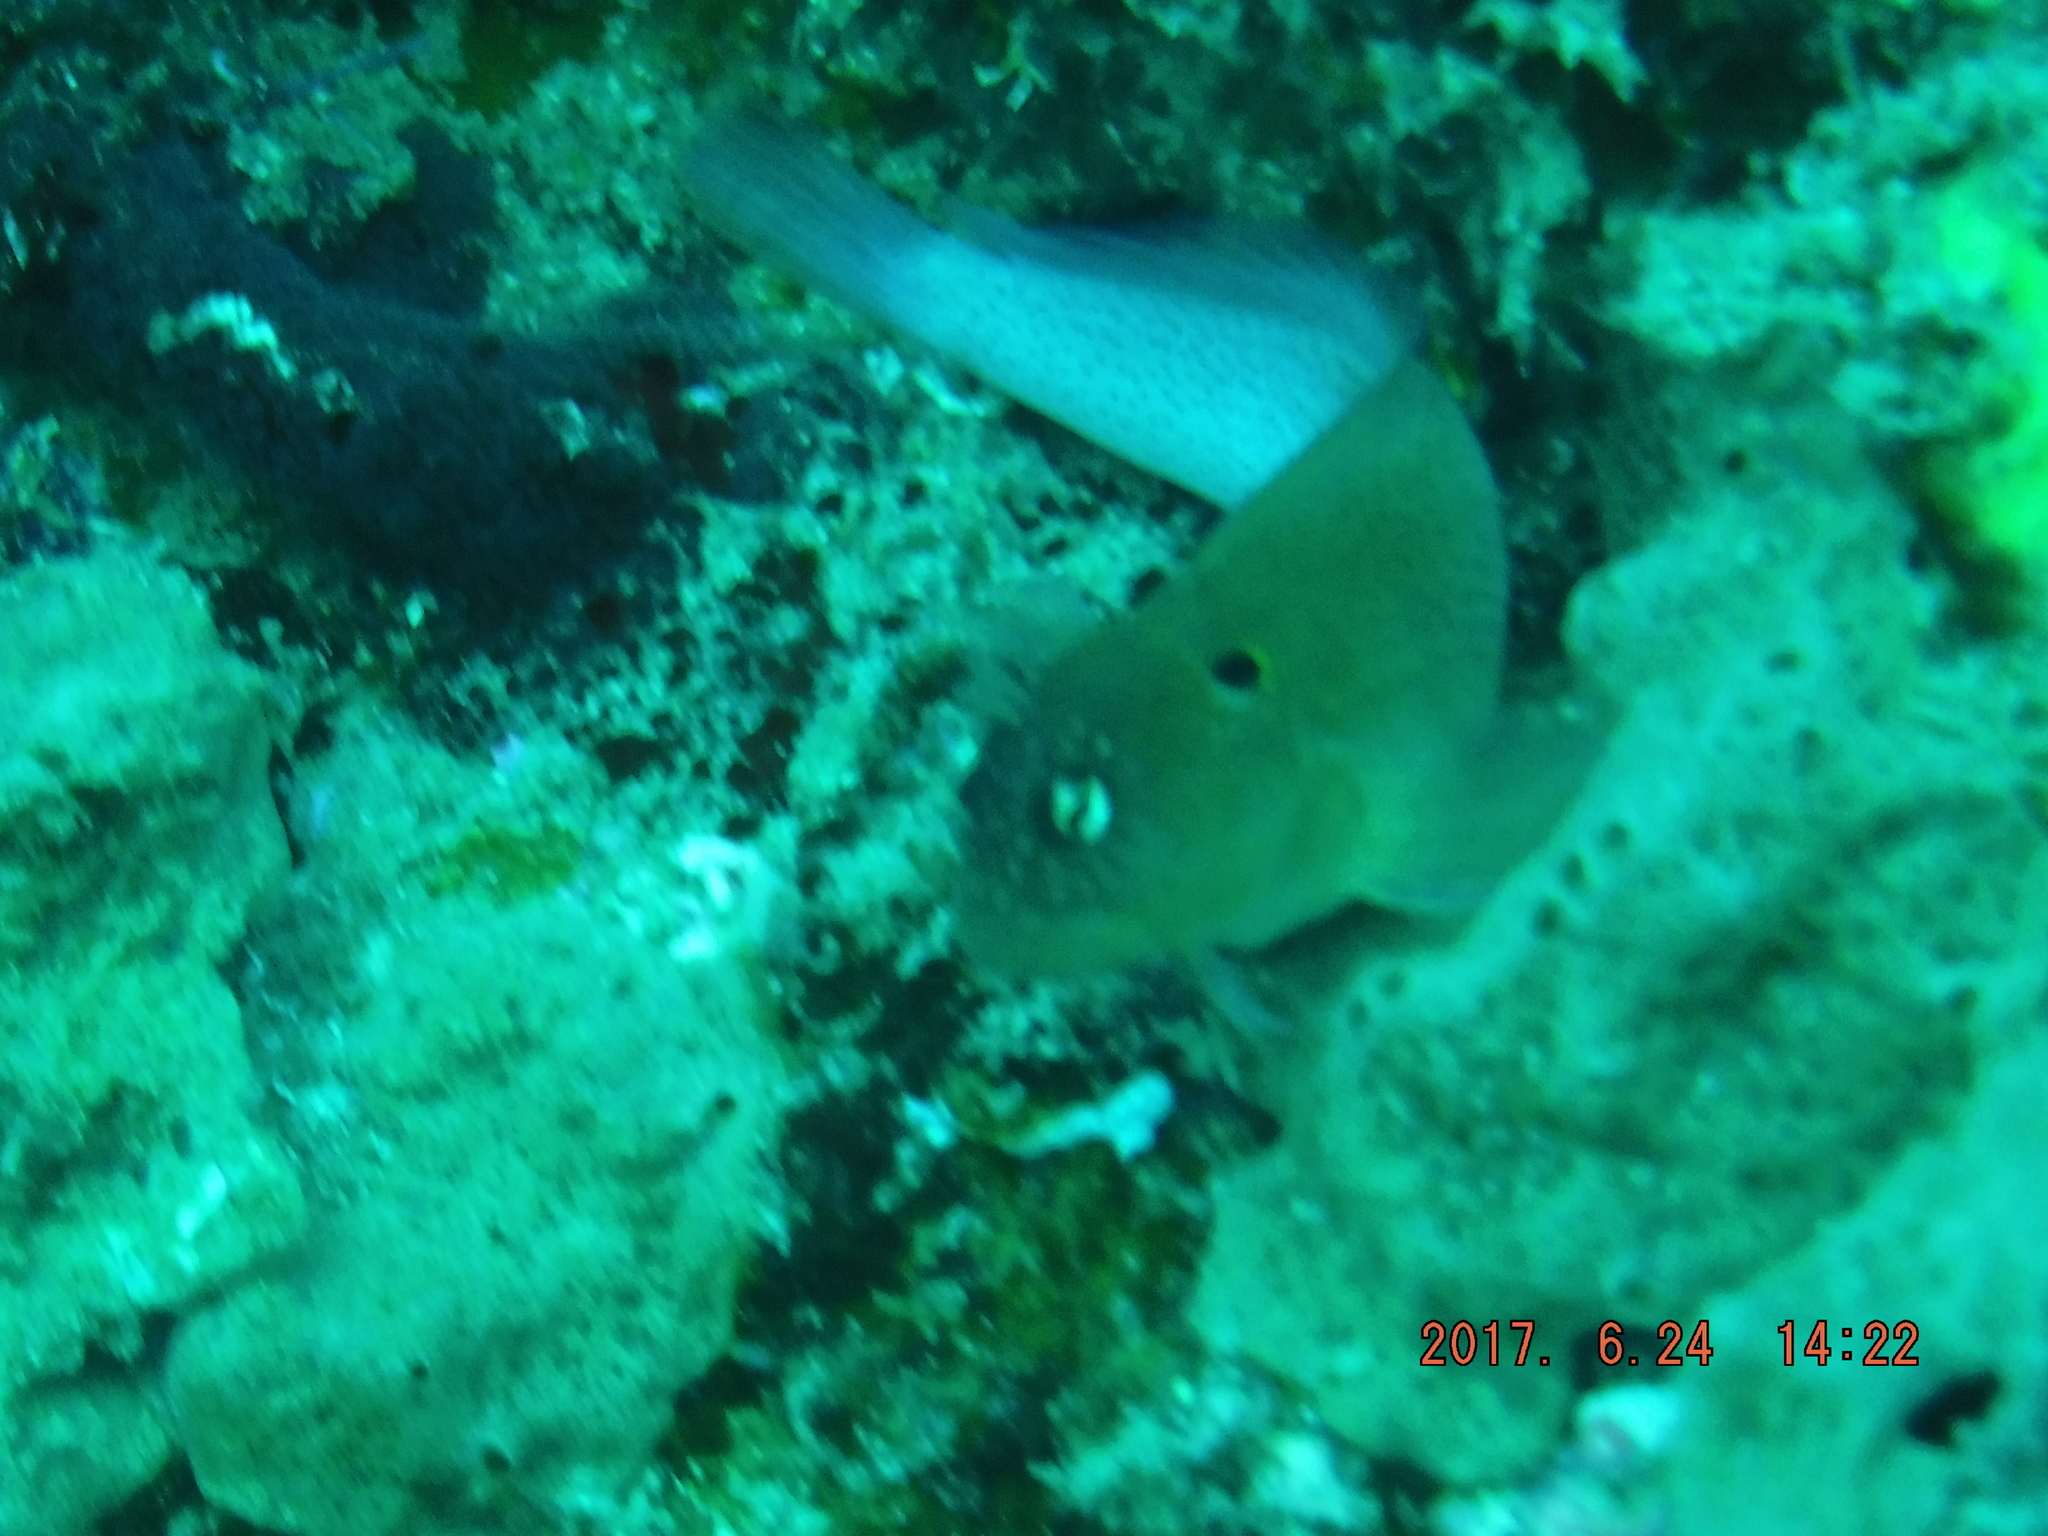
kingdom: Animalia
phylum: Chordata
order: Perciformes
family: Blenniidae
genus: Cirripectes
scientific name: Cirripectes auritus
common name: Eared blenny
